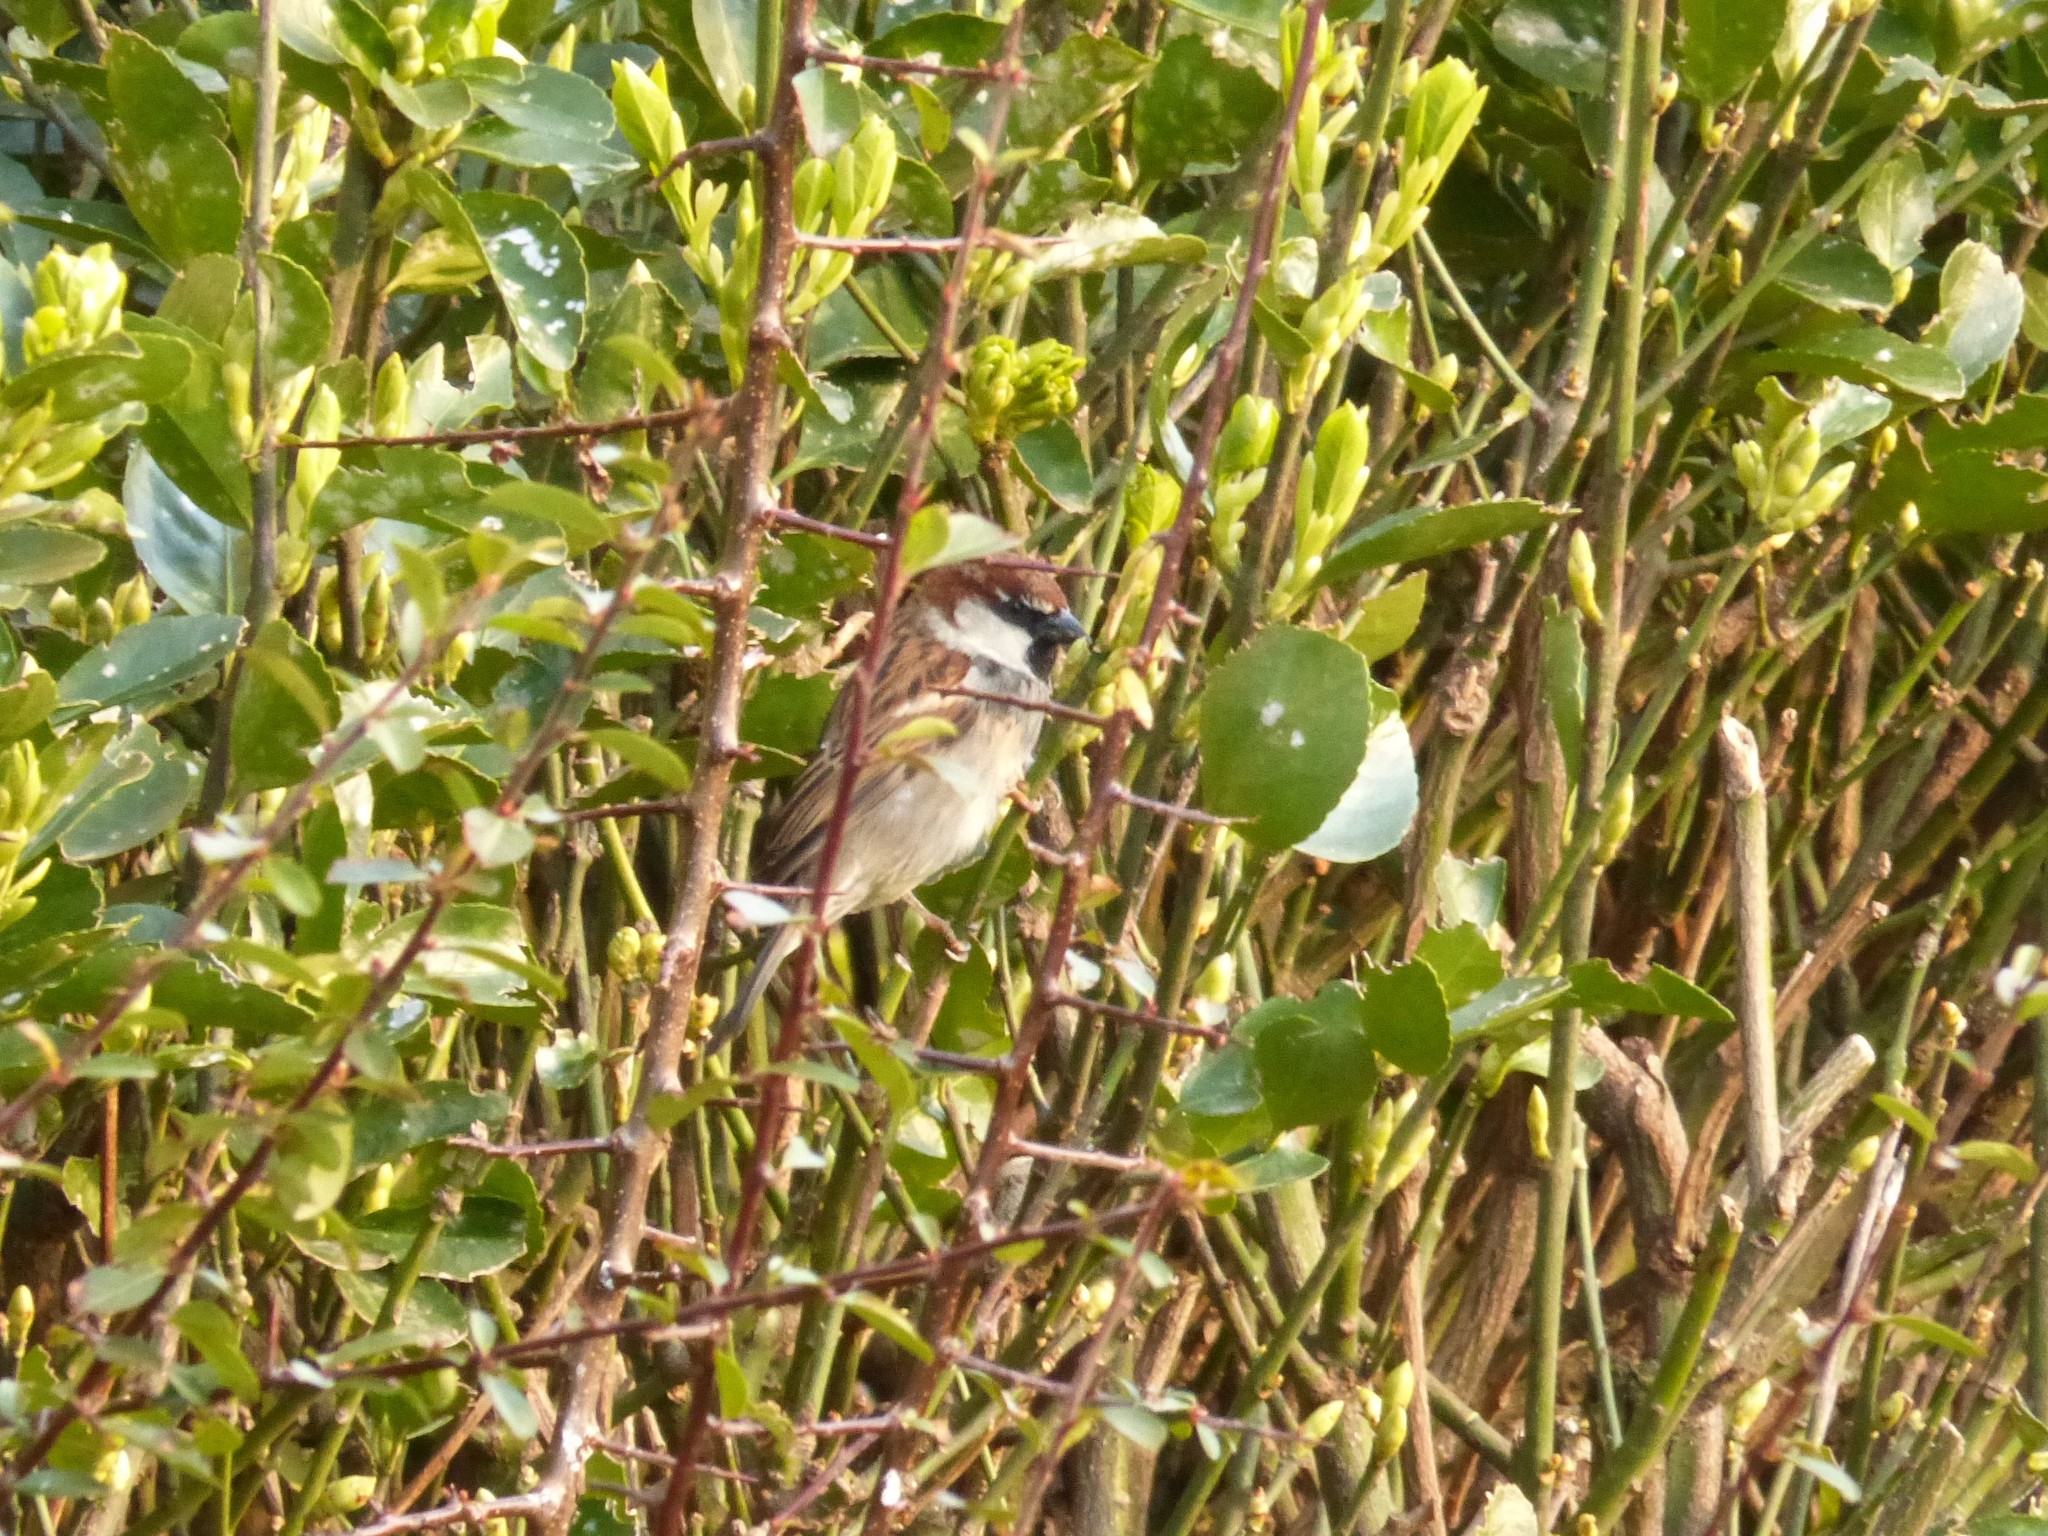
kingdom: Animalia
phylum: Chordata
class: Aves
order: Passeriformes
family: Passeridae
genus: Passer
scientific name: Passer italiae
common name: Italian sparrow
